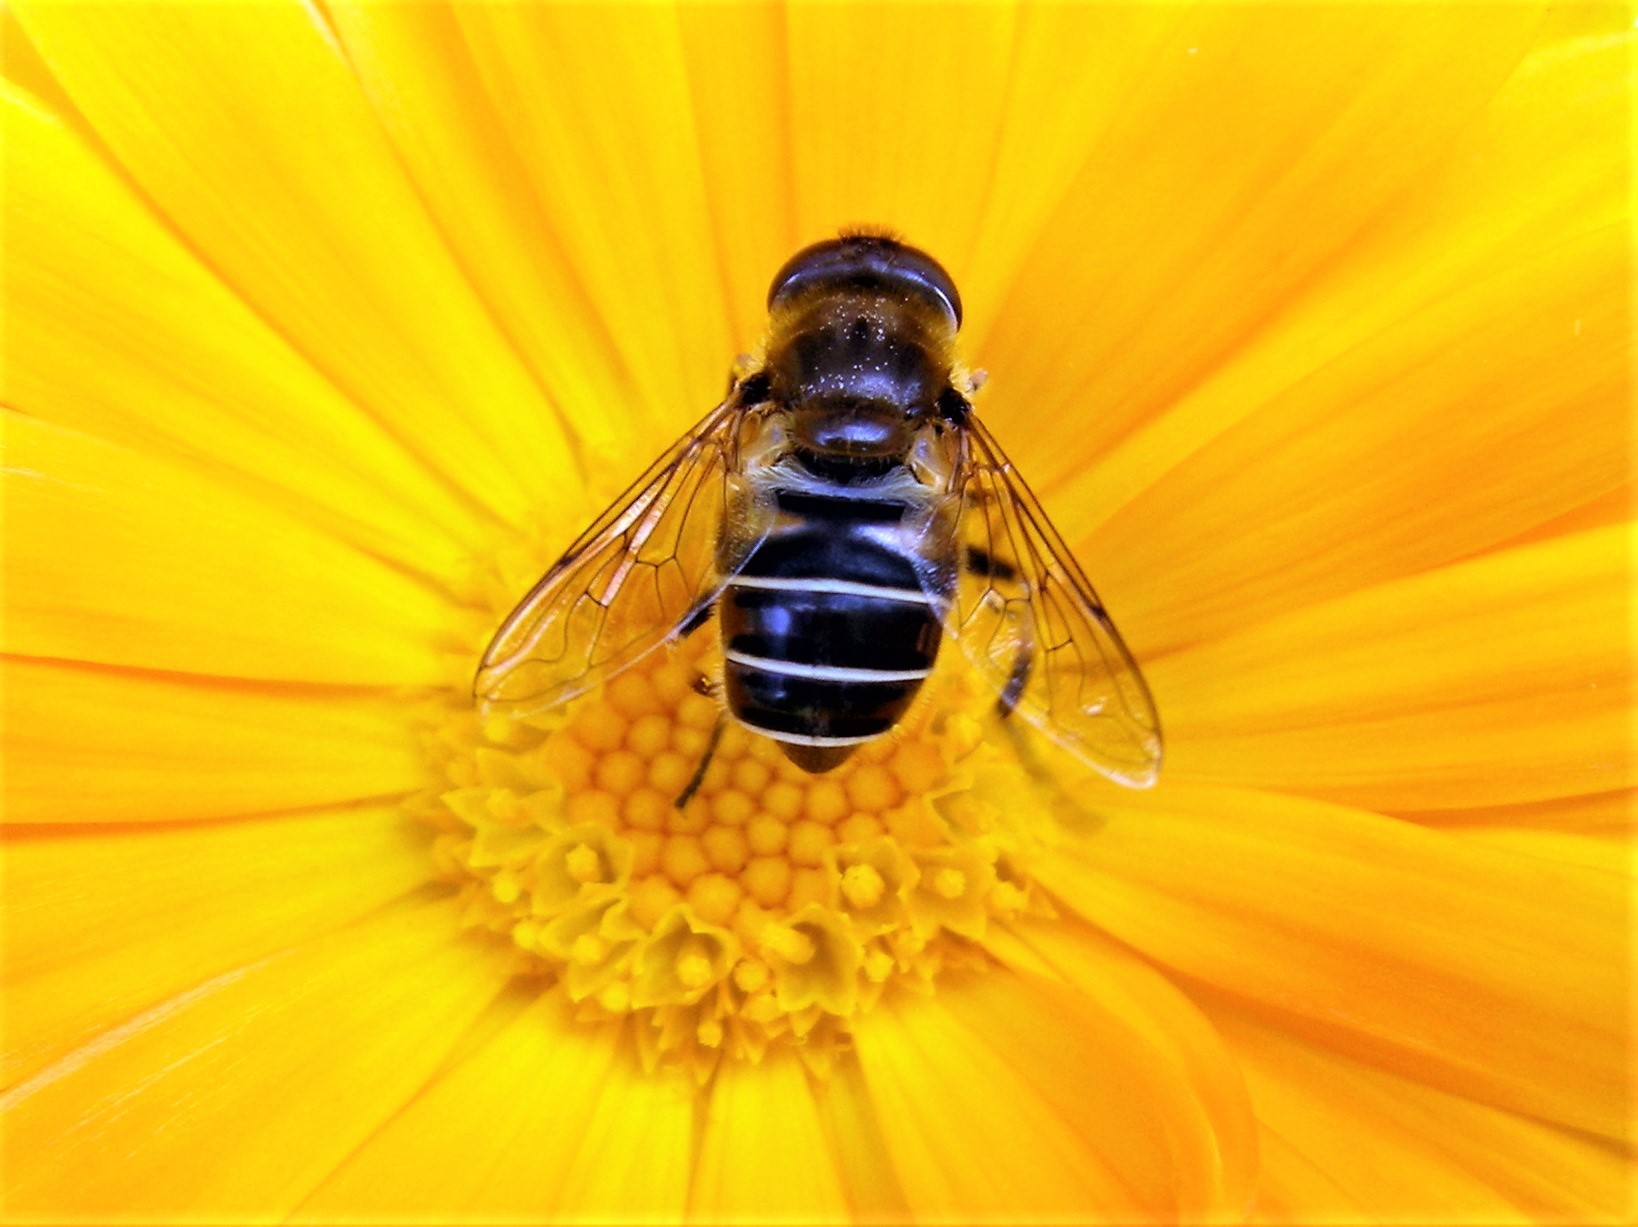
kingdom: Animalia
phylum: Arthropoda
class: Insecta
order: Diptera
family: Syrphidae
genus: Eristalis
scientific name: Eristalis nemorum
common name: Orange-spined drone fly
